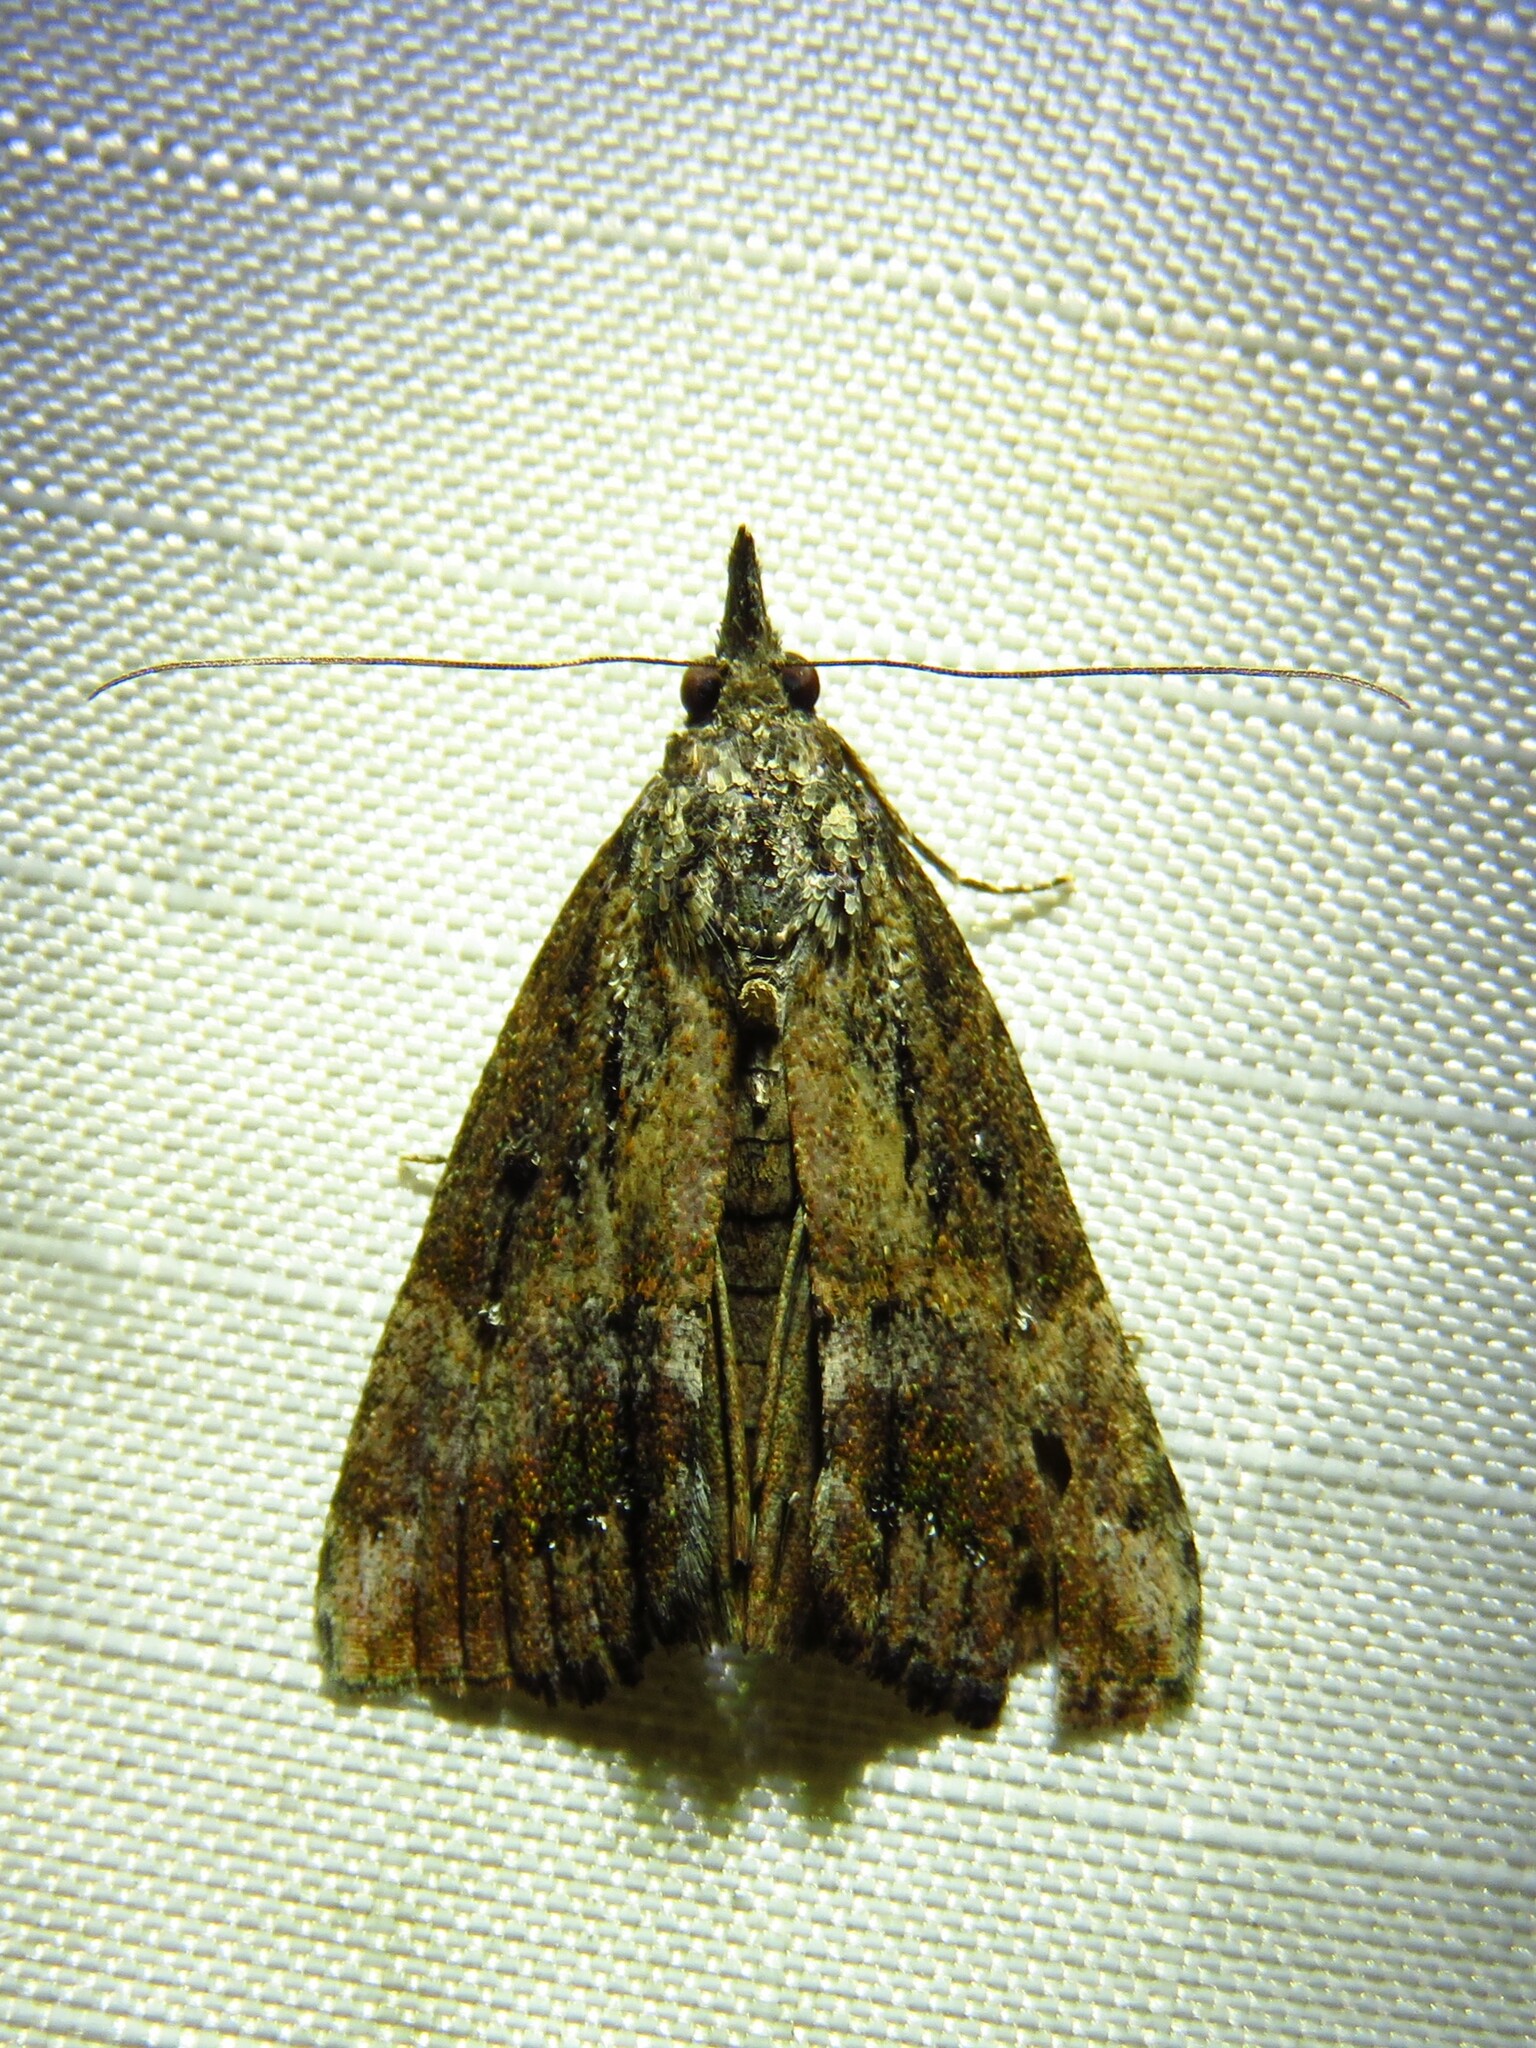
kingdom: Animalia
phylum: Arthropoda
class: Insecta
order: Lepidoptera
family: Erebidae
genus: Hypena
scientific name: Hypena scabra
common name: Green cloverworm
